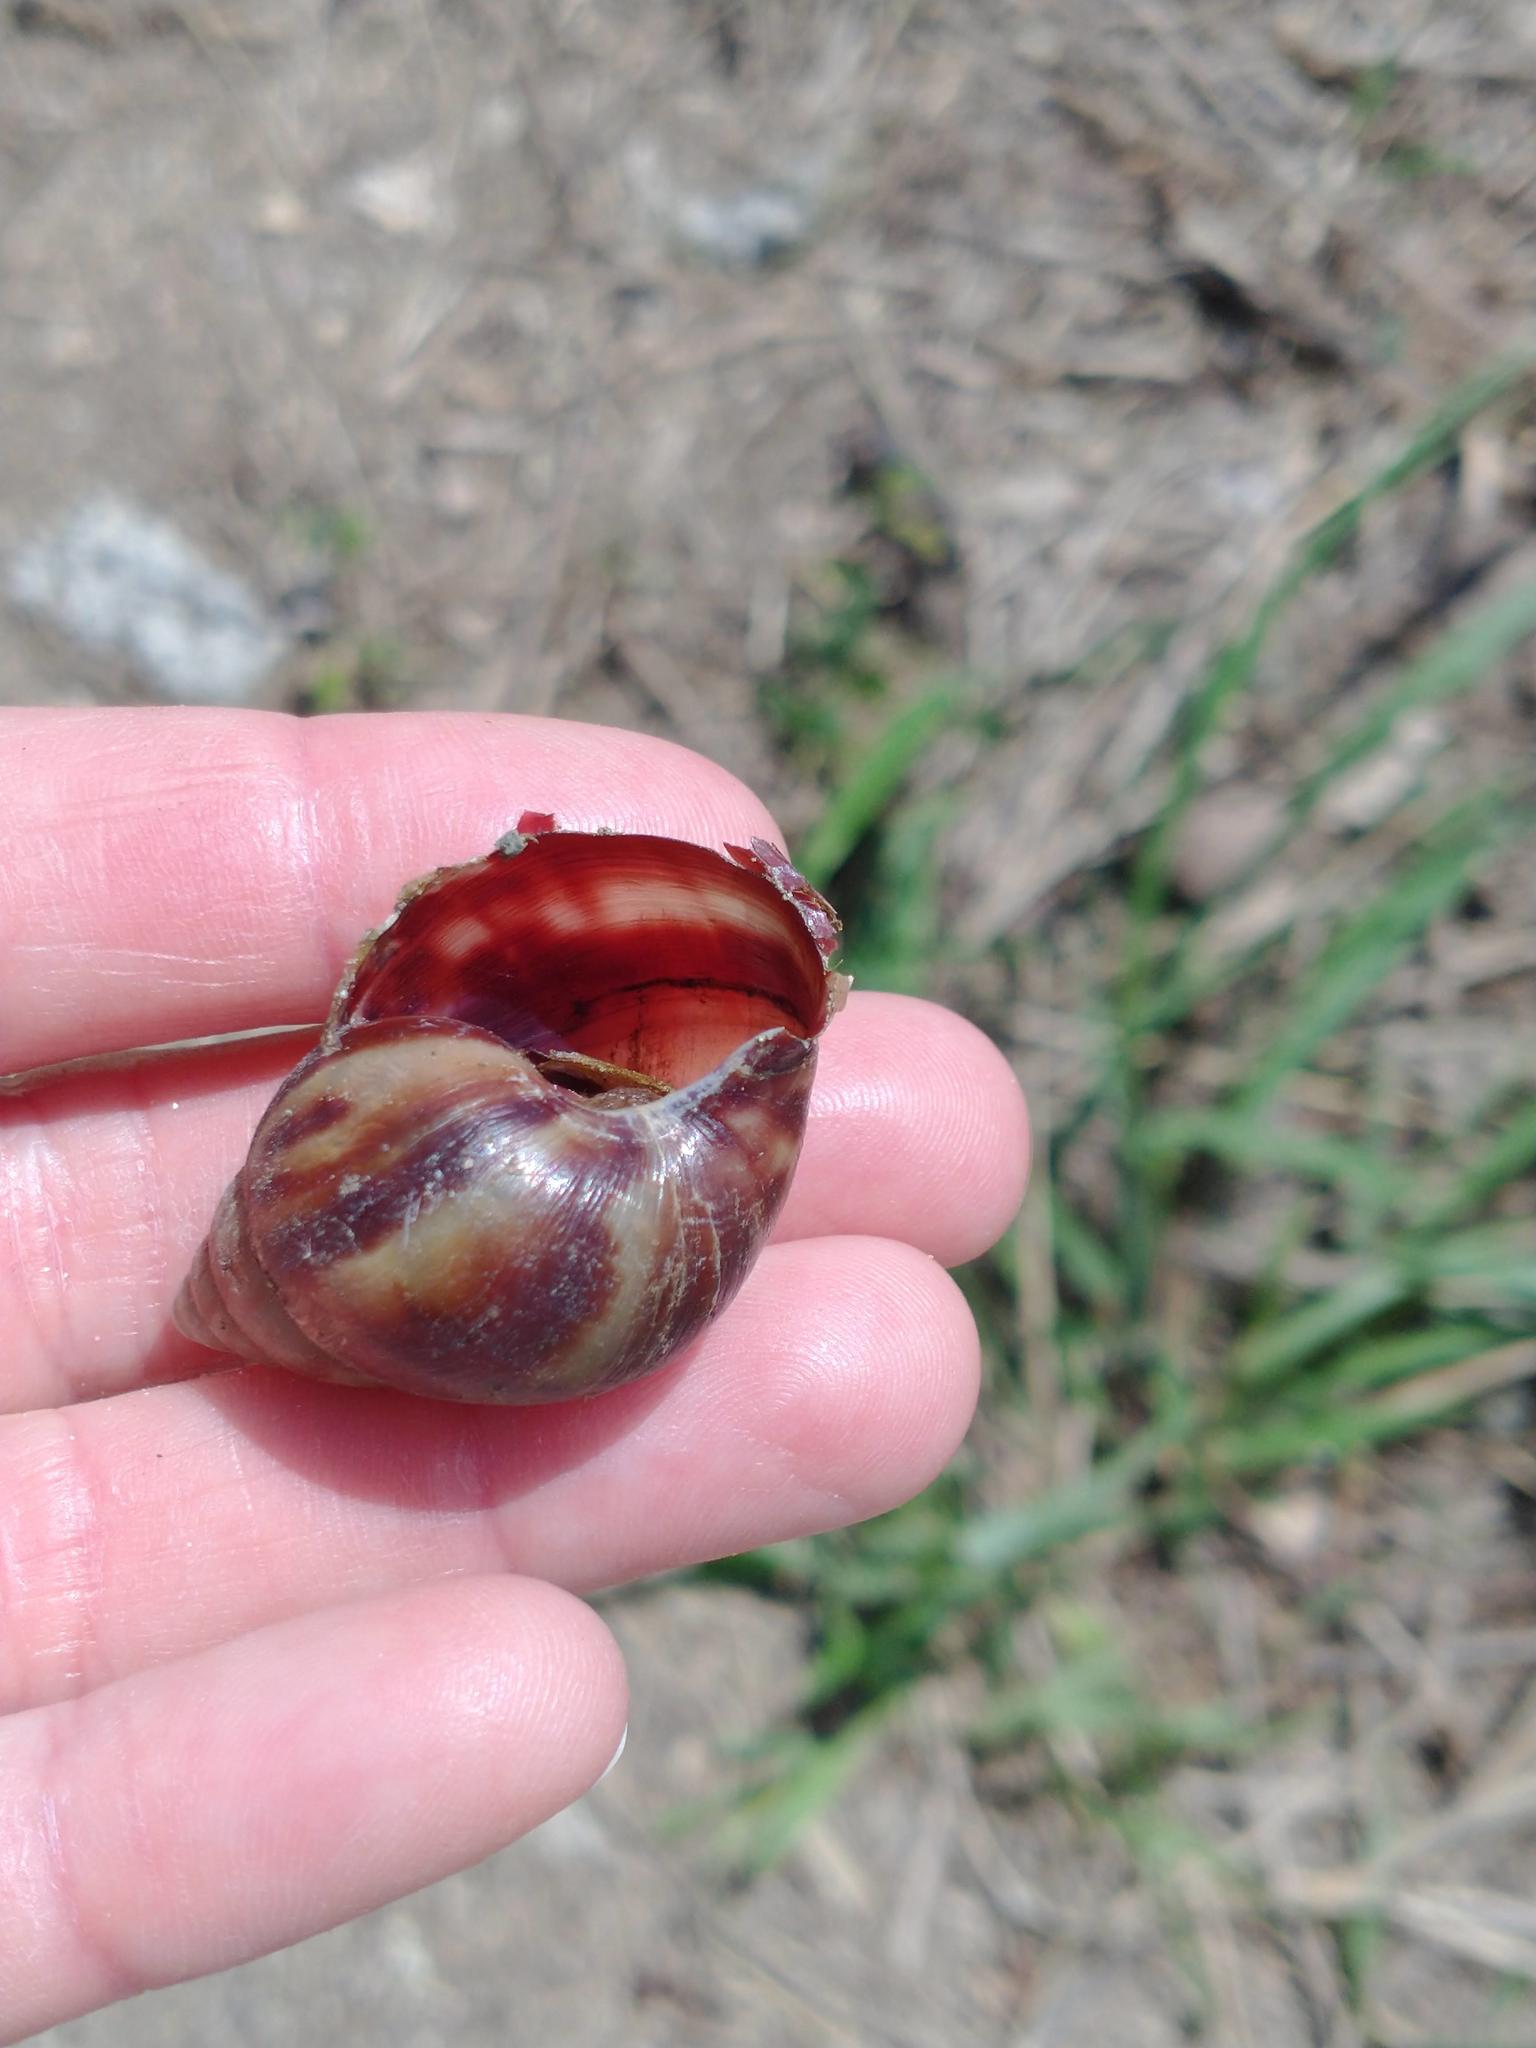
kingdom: Animalia
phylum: Mollusca
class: Gastropoda
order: Stylommatophora
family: Achatinidae
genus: Lissachatina
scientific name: Lissachatina fulica
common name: Giant african snail
